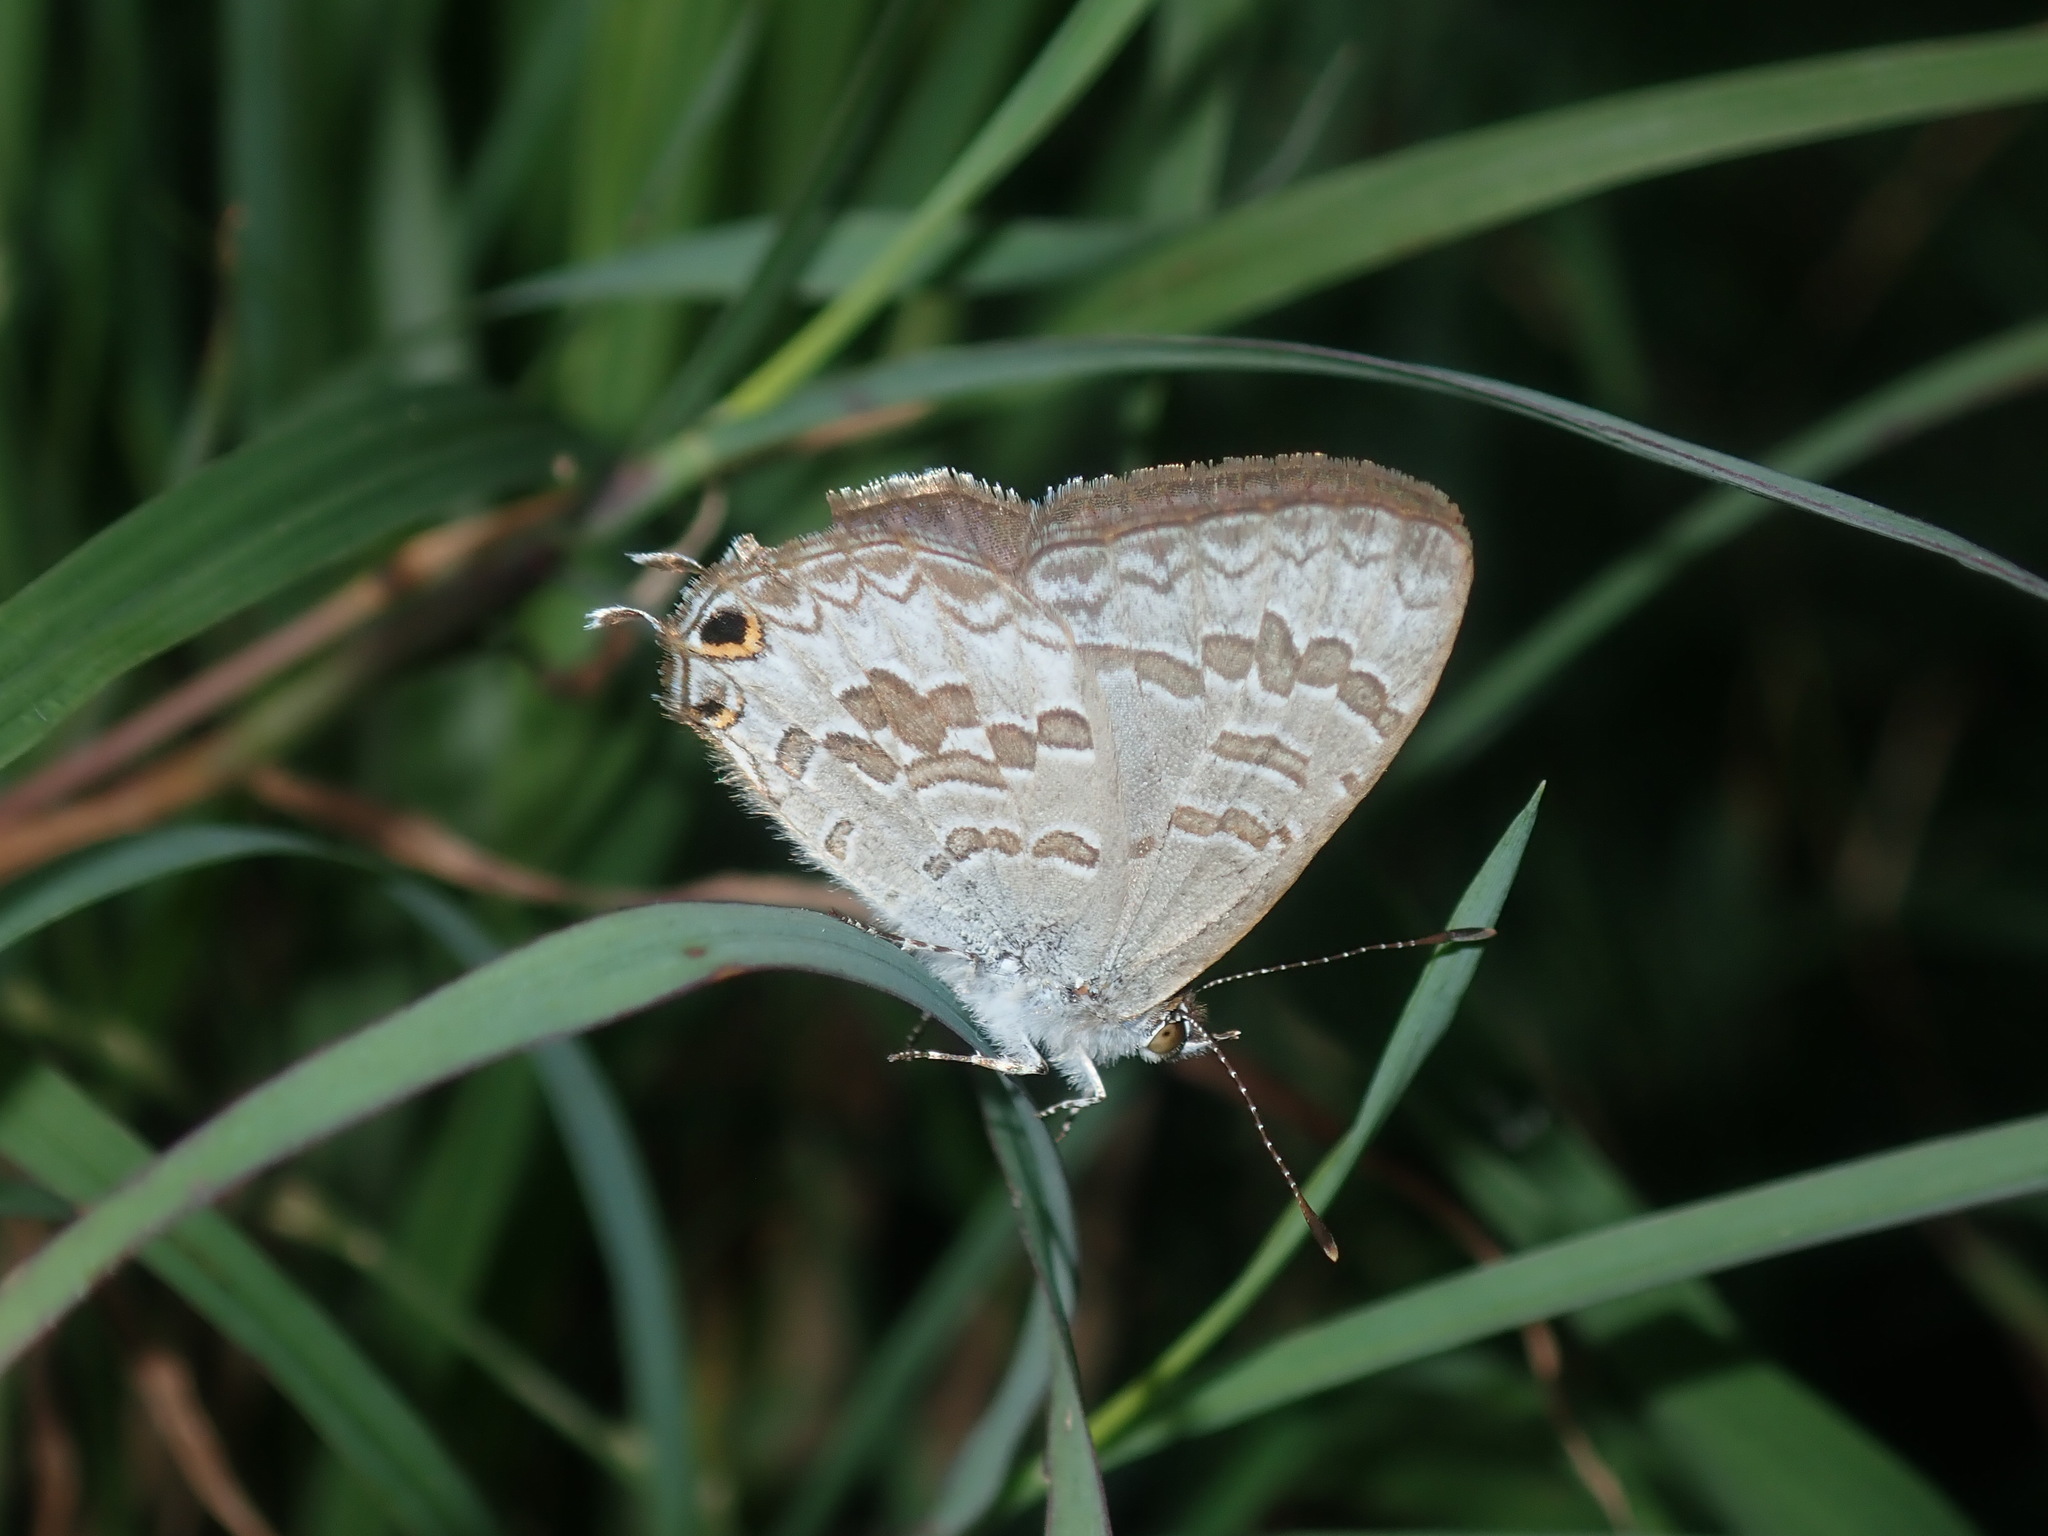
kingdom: Animalia
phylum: Arthropoda
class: Insecta
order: Lepidoptera
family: Lycaenidae
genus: Catopyrops
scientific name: Catopyrops florinda
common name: Speckled line-blue
